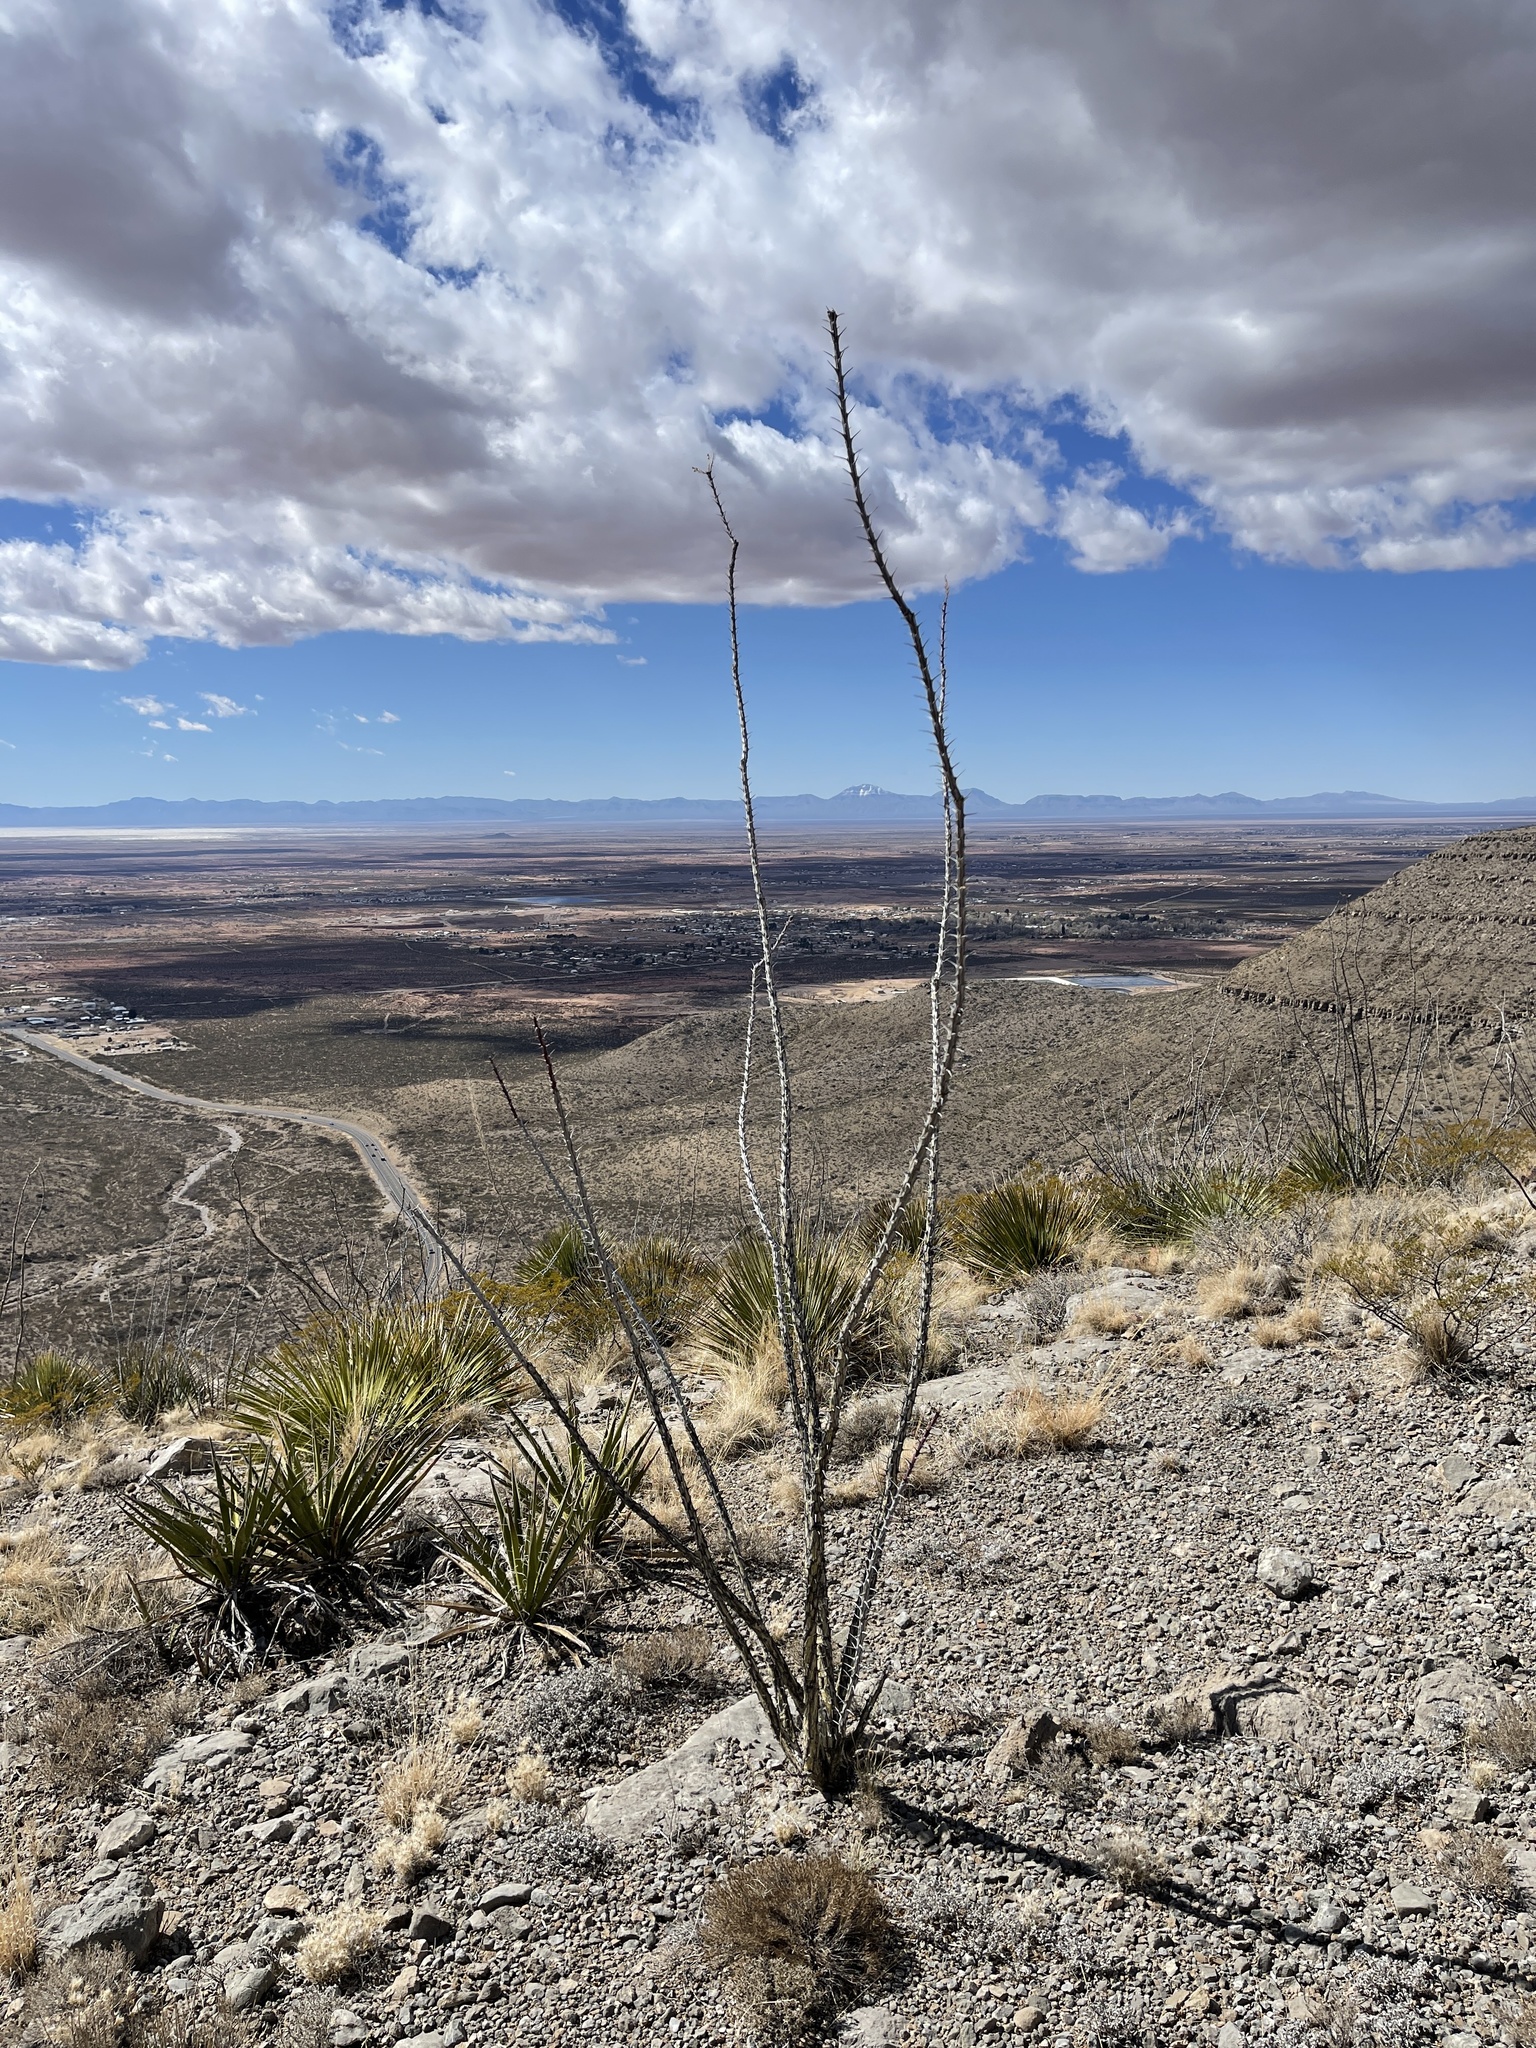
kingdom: Plantae
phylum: Tracheophyta
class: Magnoliopsida
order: Ericales
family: Fouquieriaceae
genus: Fouquieria
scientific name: Fouquieria splendens
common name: Vine-cactus
